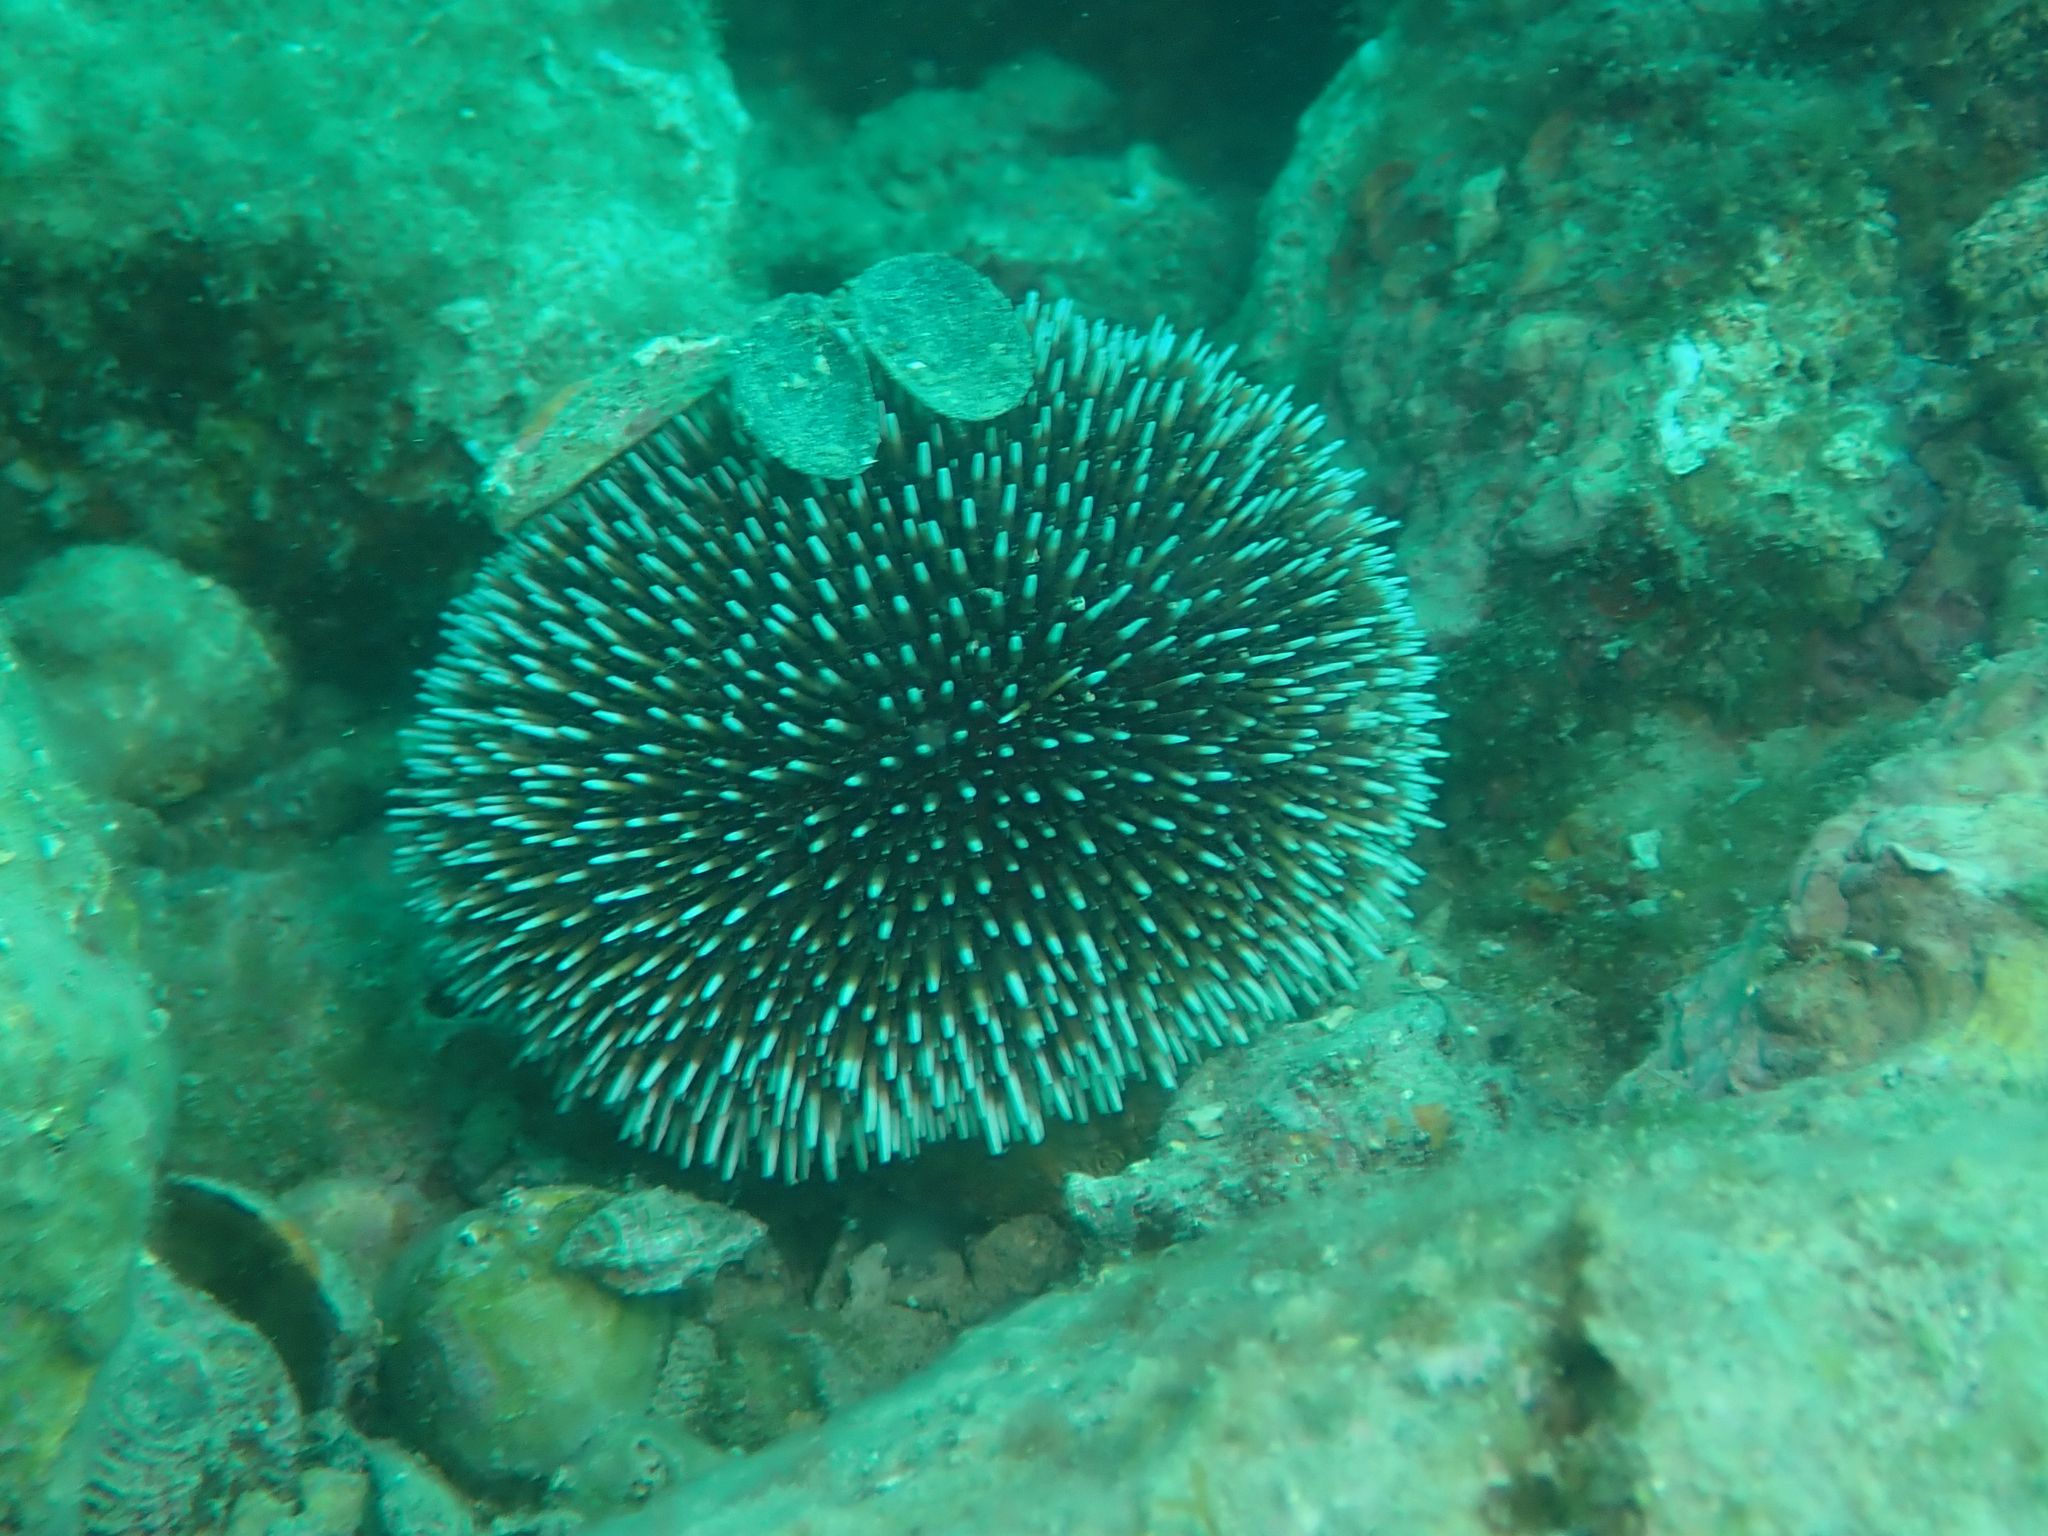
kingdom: Animalia
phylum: Echinodermata
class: Echinoidea
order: Camarodonta
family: Toxopneustidae
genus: Sphaerechinus
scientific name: Sphaerechinus granularis
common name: Violet sea urchin
